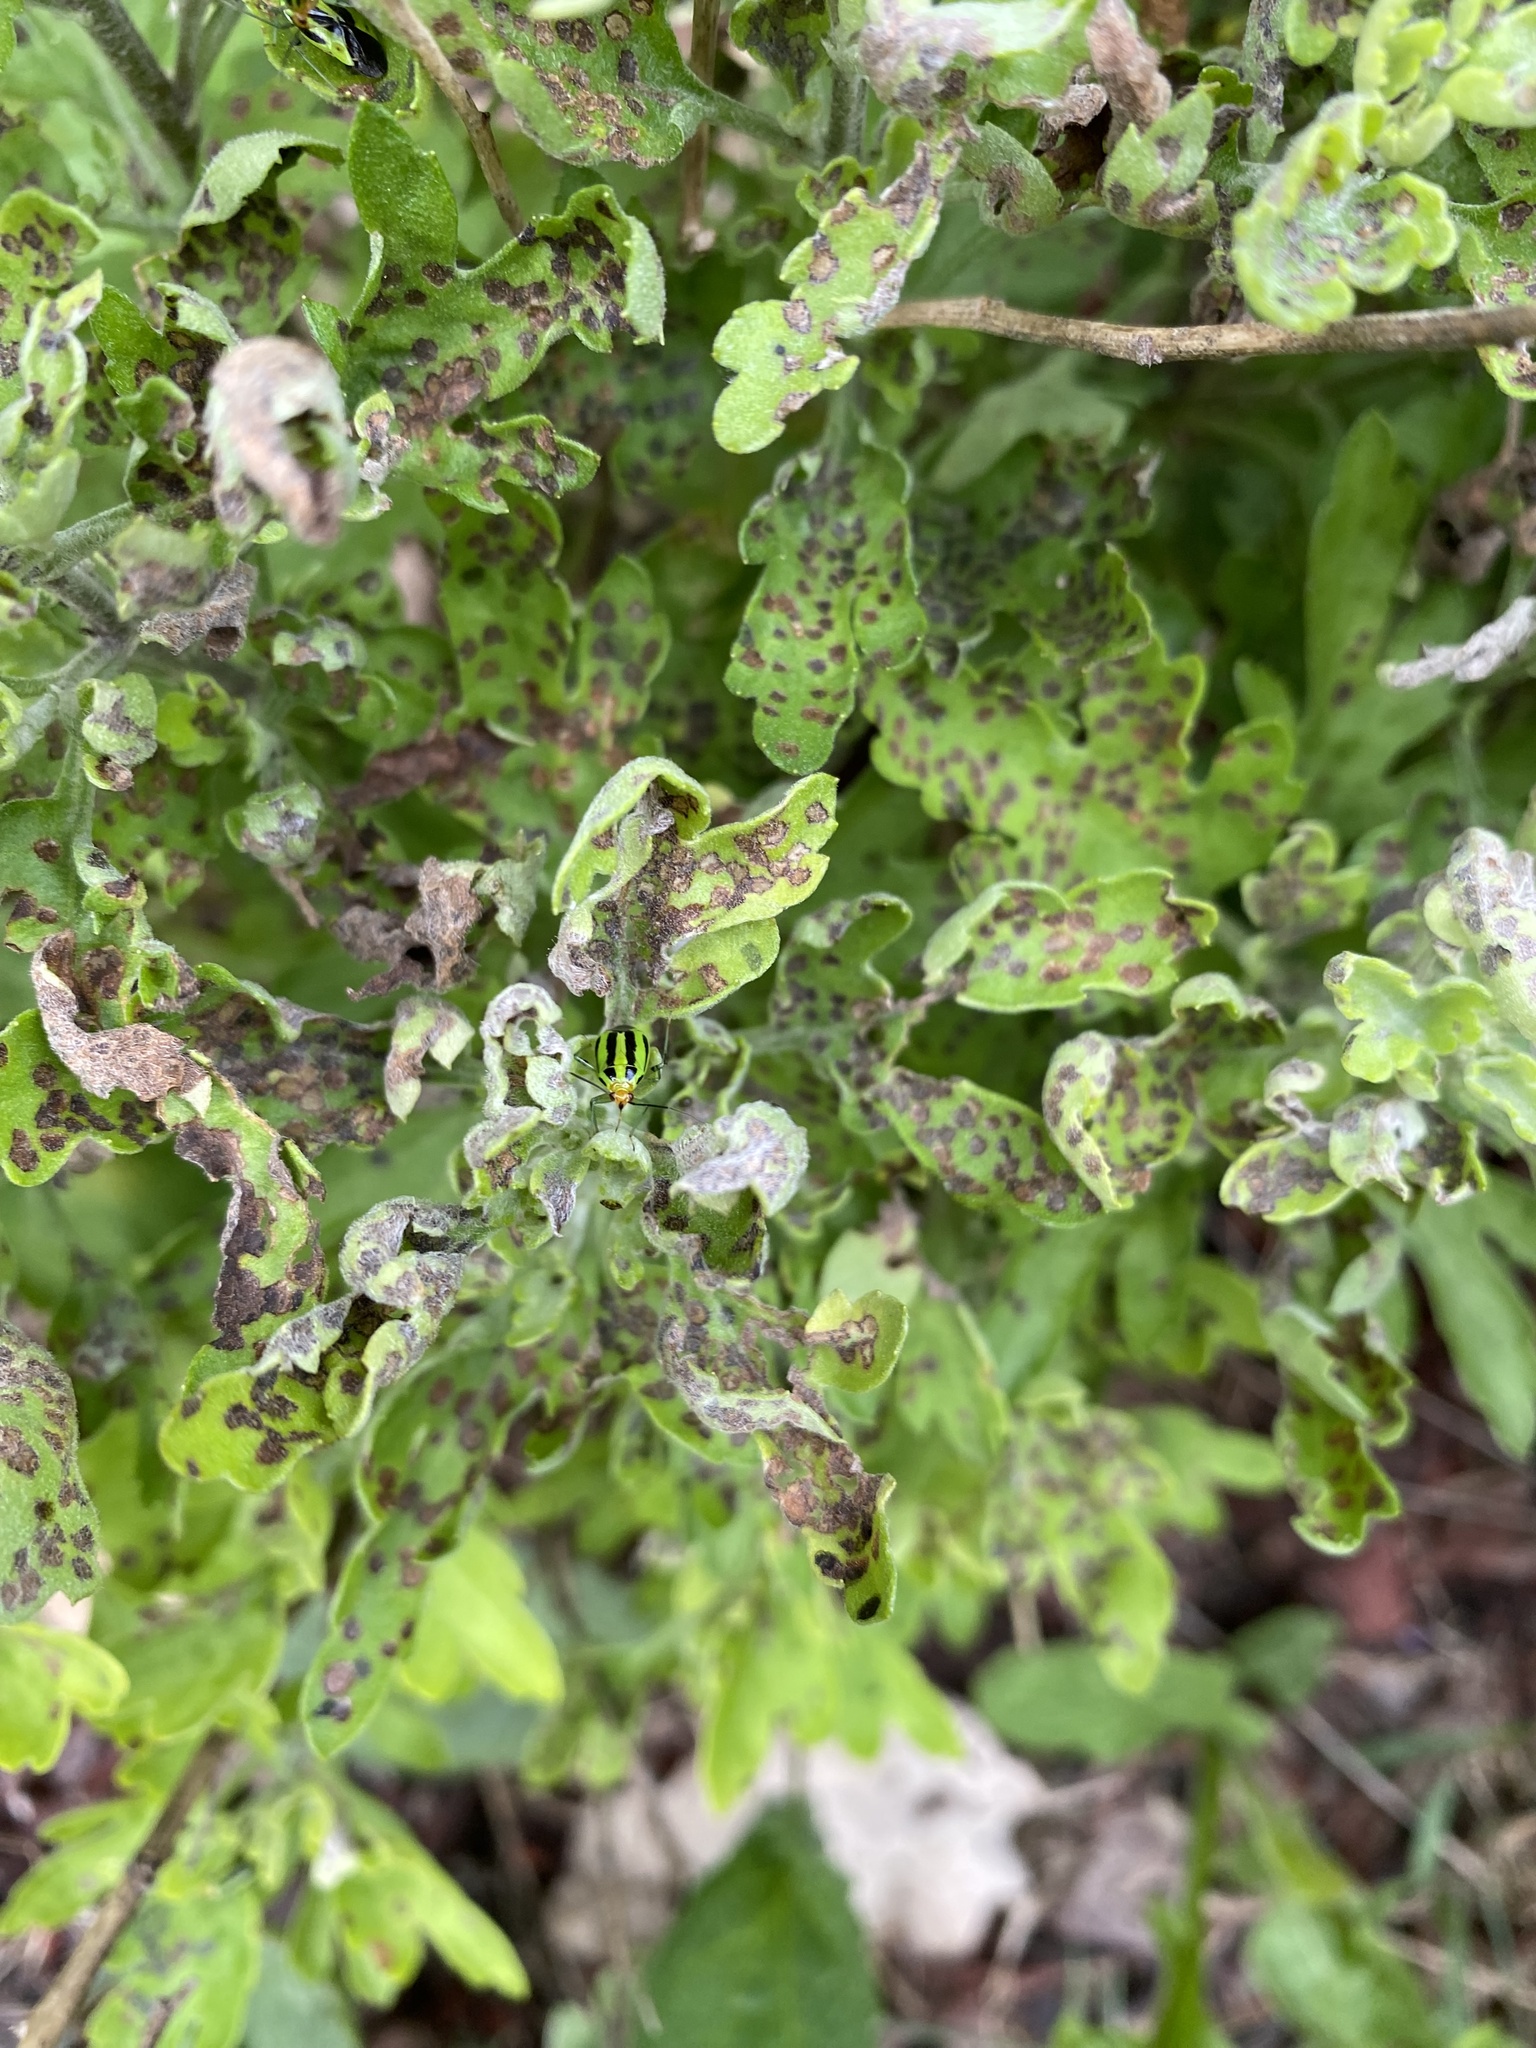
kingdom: Animalia
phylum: Arthropoda
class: Insecta
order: Hemiptera
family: Miridae
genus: Poecilocapsus
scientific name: Poecilocapsus lineatus
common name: Four-lined plant bug
